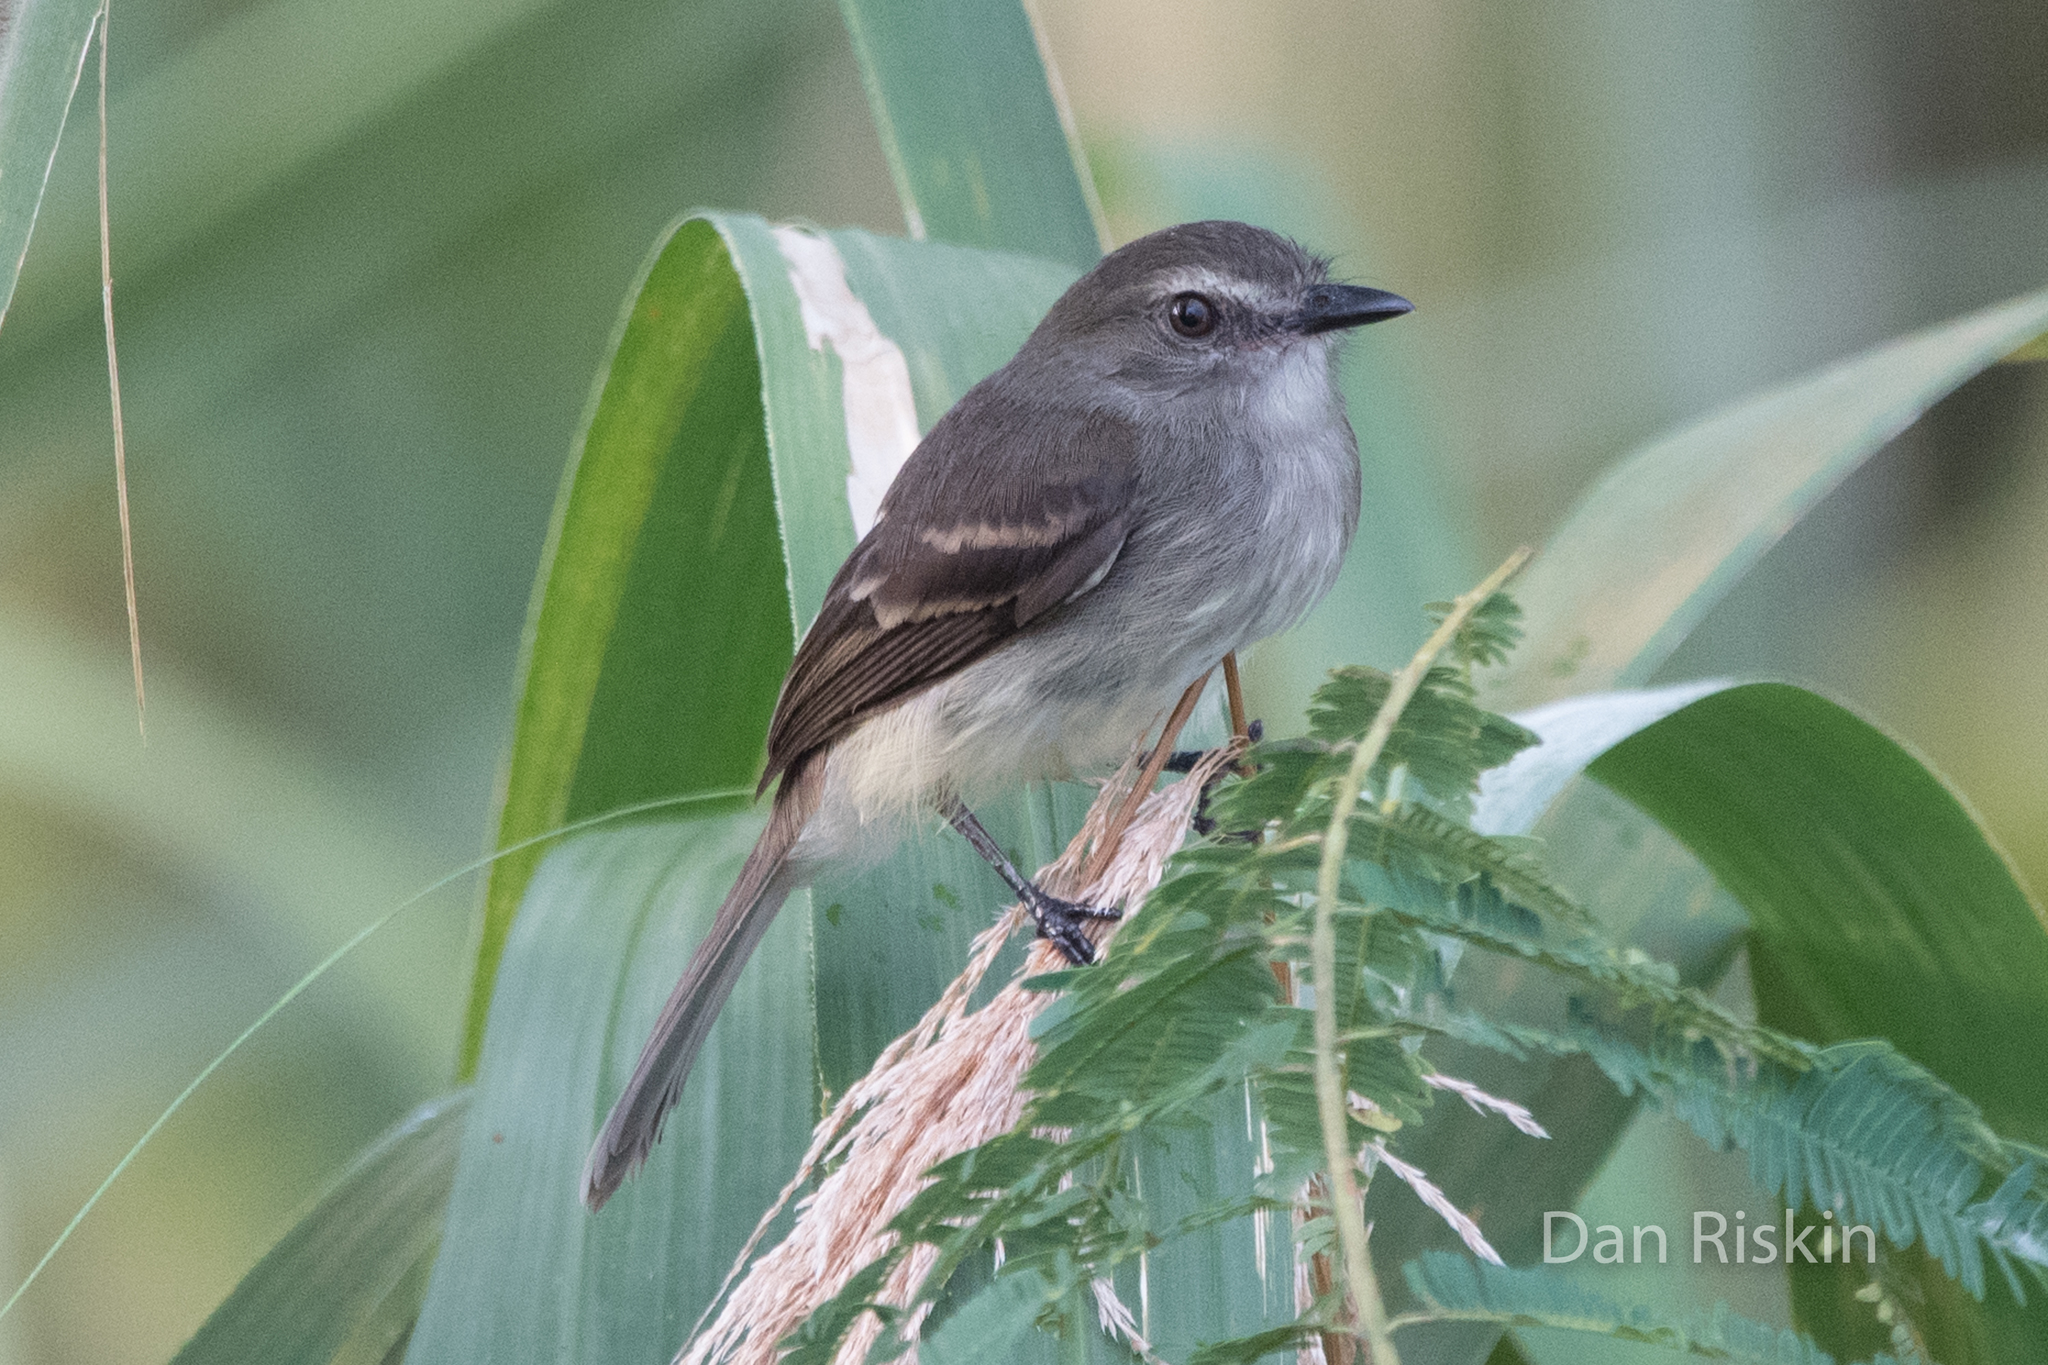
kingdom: Animalia
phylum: Chordata
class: Aves
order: Passeriformes
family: Tyrannidae
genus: Cnemotriccus
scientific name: Cnemotriccus fuscatus
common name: Fuscous flycatcher
